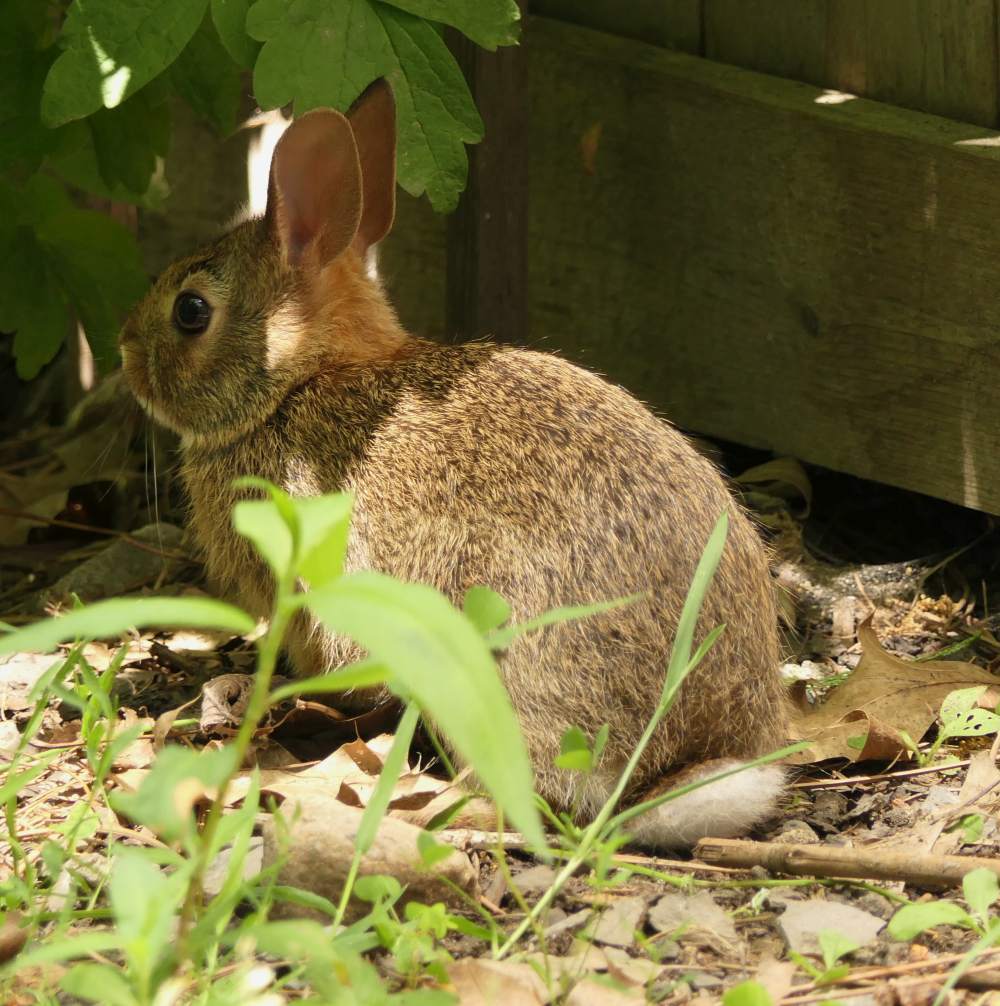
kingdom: Animalia
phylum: Chordata
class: Mammalia
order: Lagomorpha
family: Leporidae
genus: Sylvilagus
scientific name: Sylvilagus floridanus
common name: Eastern cottontail
